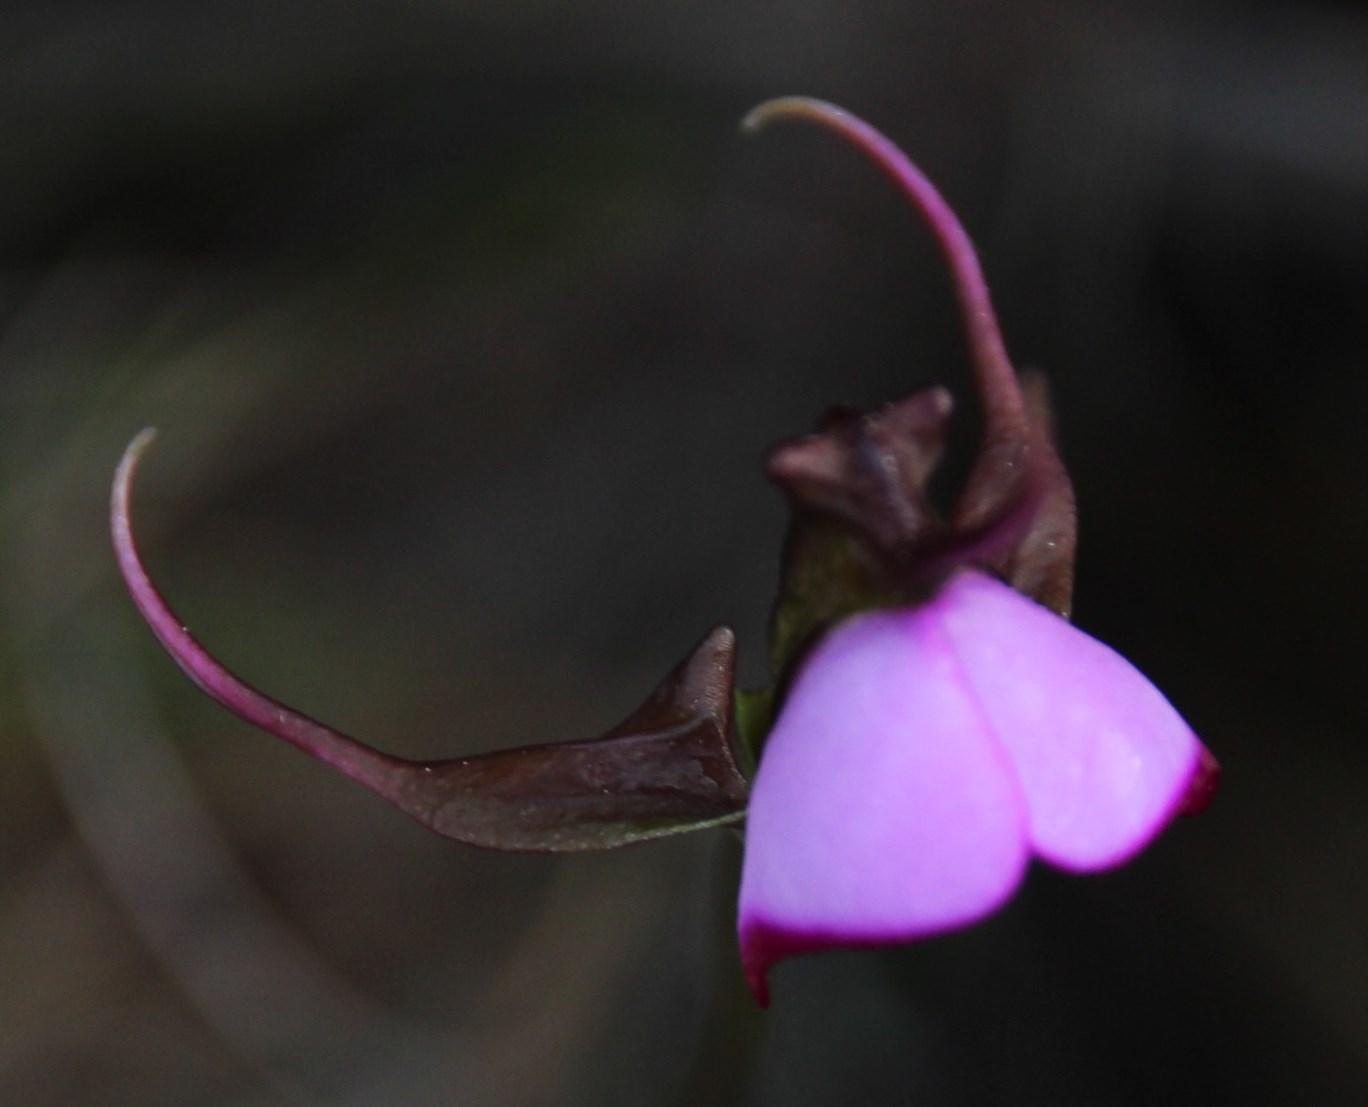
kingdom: Plantae
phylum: Tracheophyta
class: Liliopsida
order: Asparagales
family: Orchidaceae
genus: Disperis
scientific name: Disperis capensis
